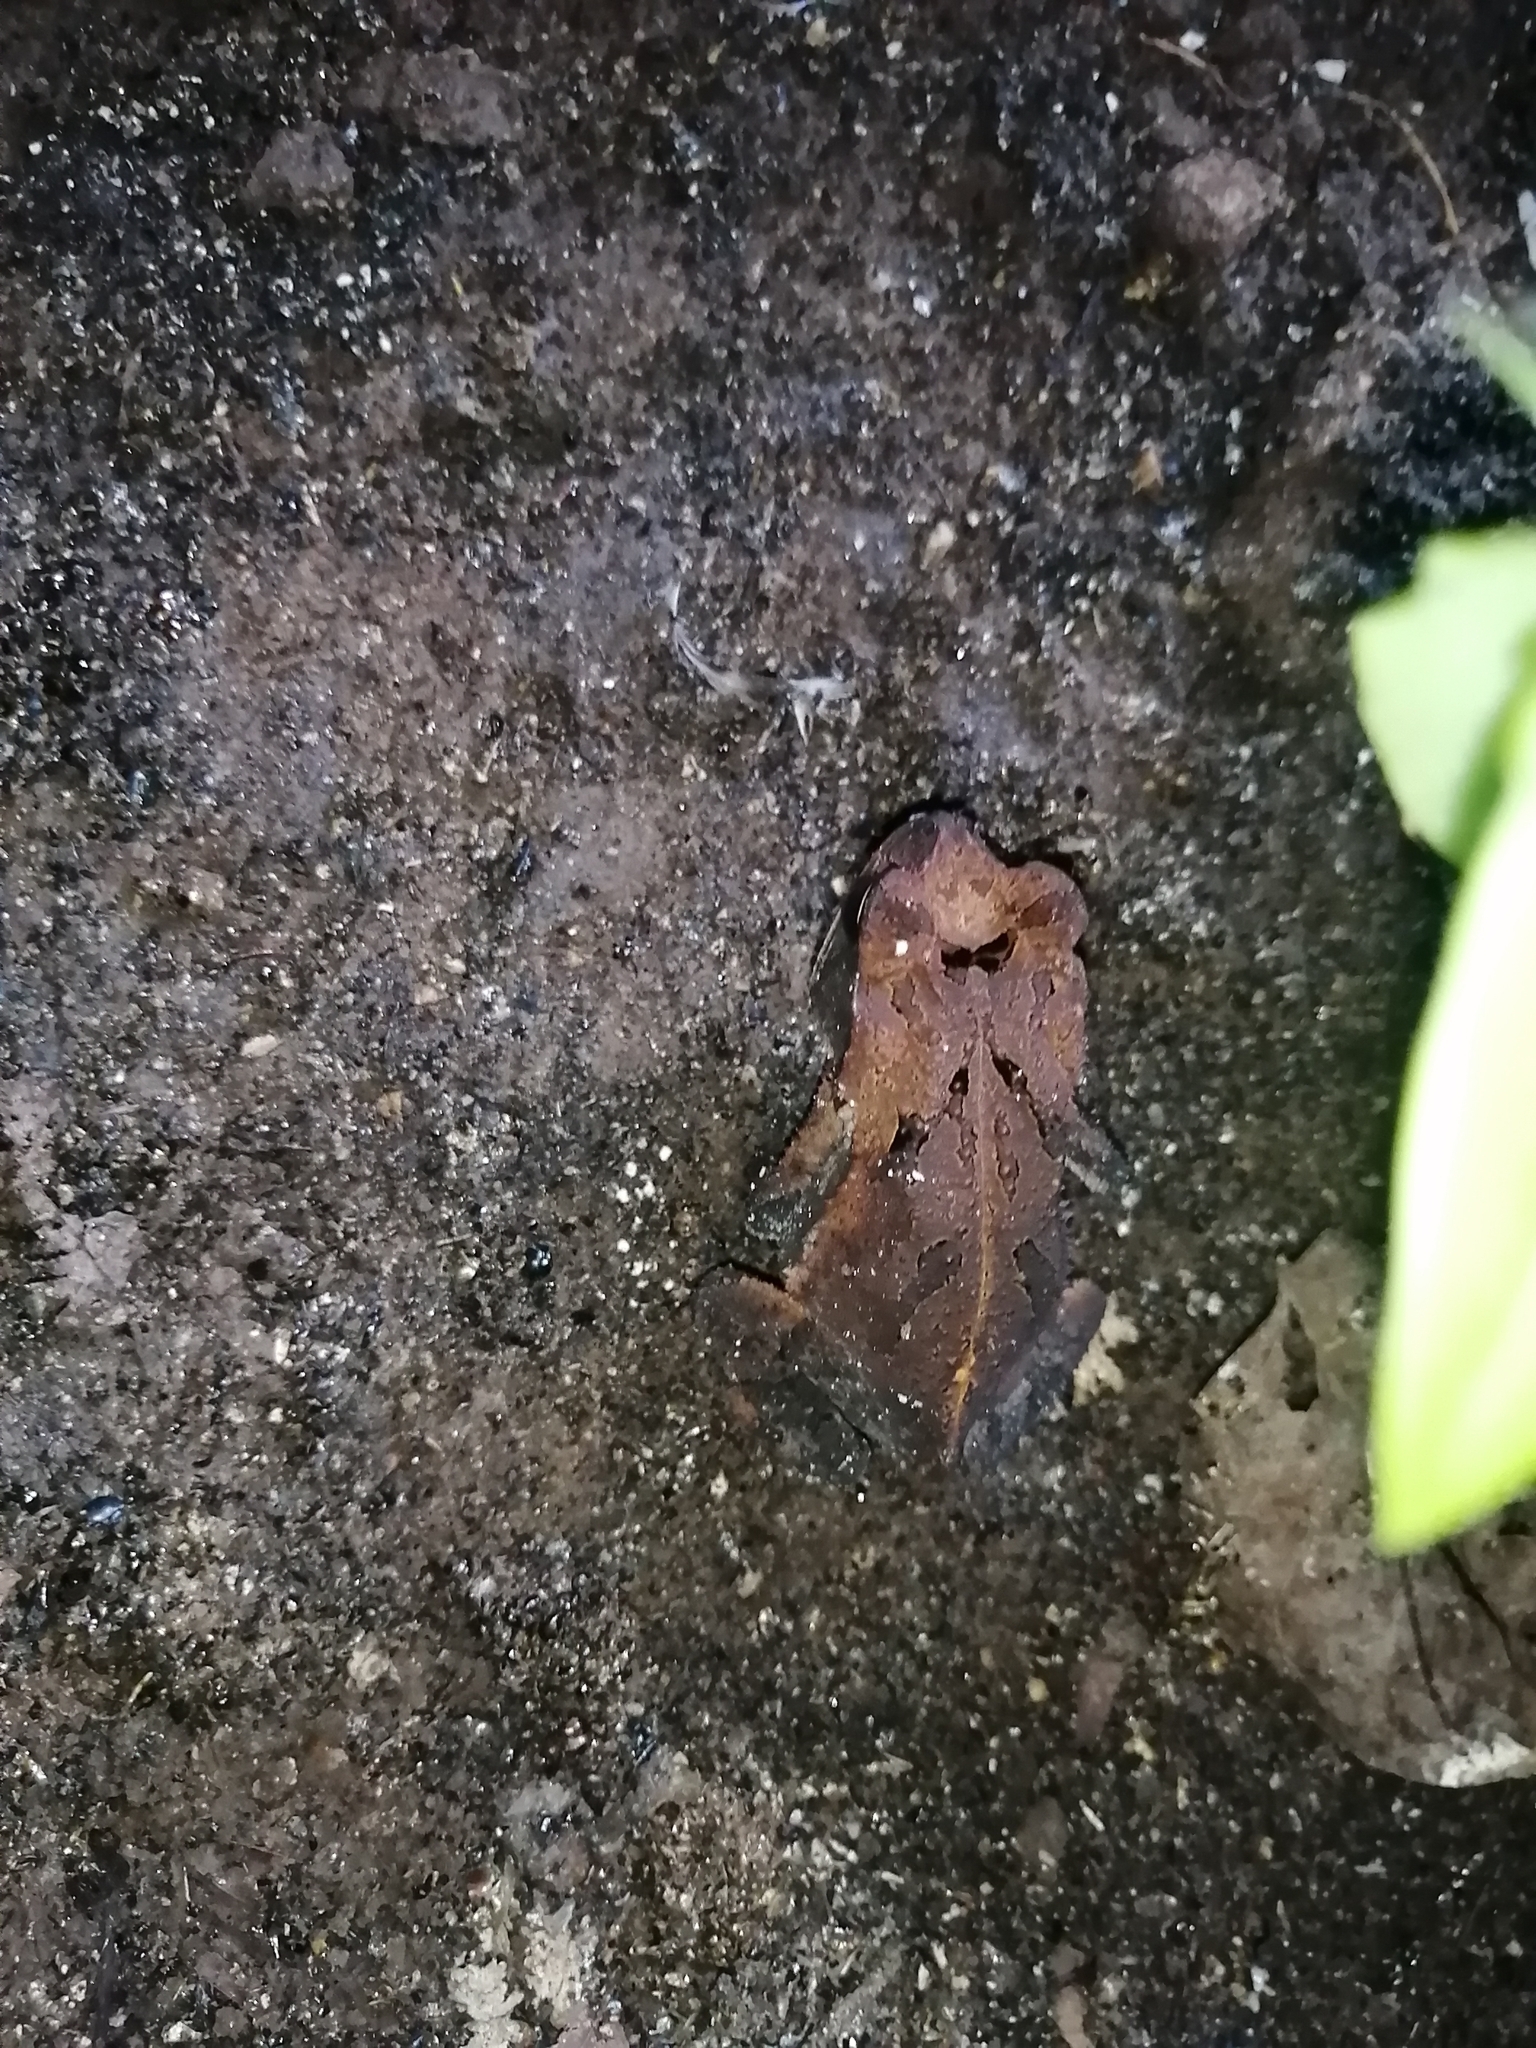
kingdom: Animalia
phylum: Chordata
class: Amphibia
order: Anura
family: Bufonidae
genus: Incilius
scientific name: Incilius valliceps
